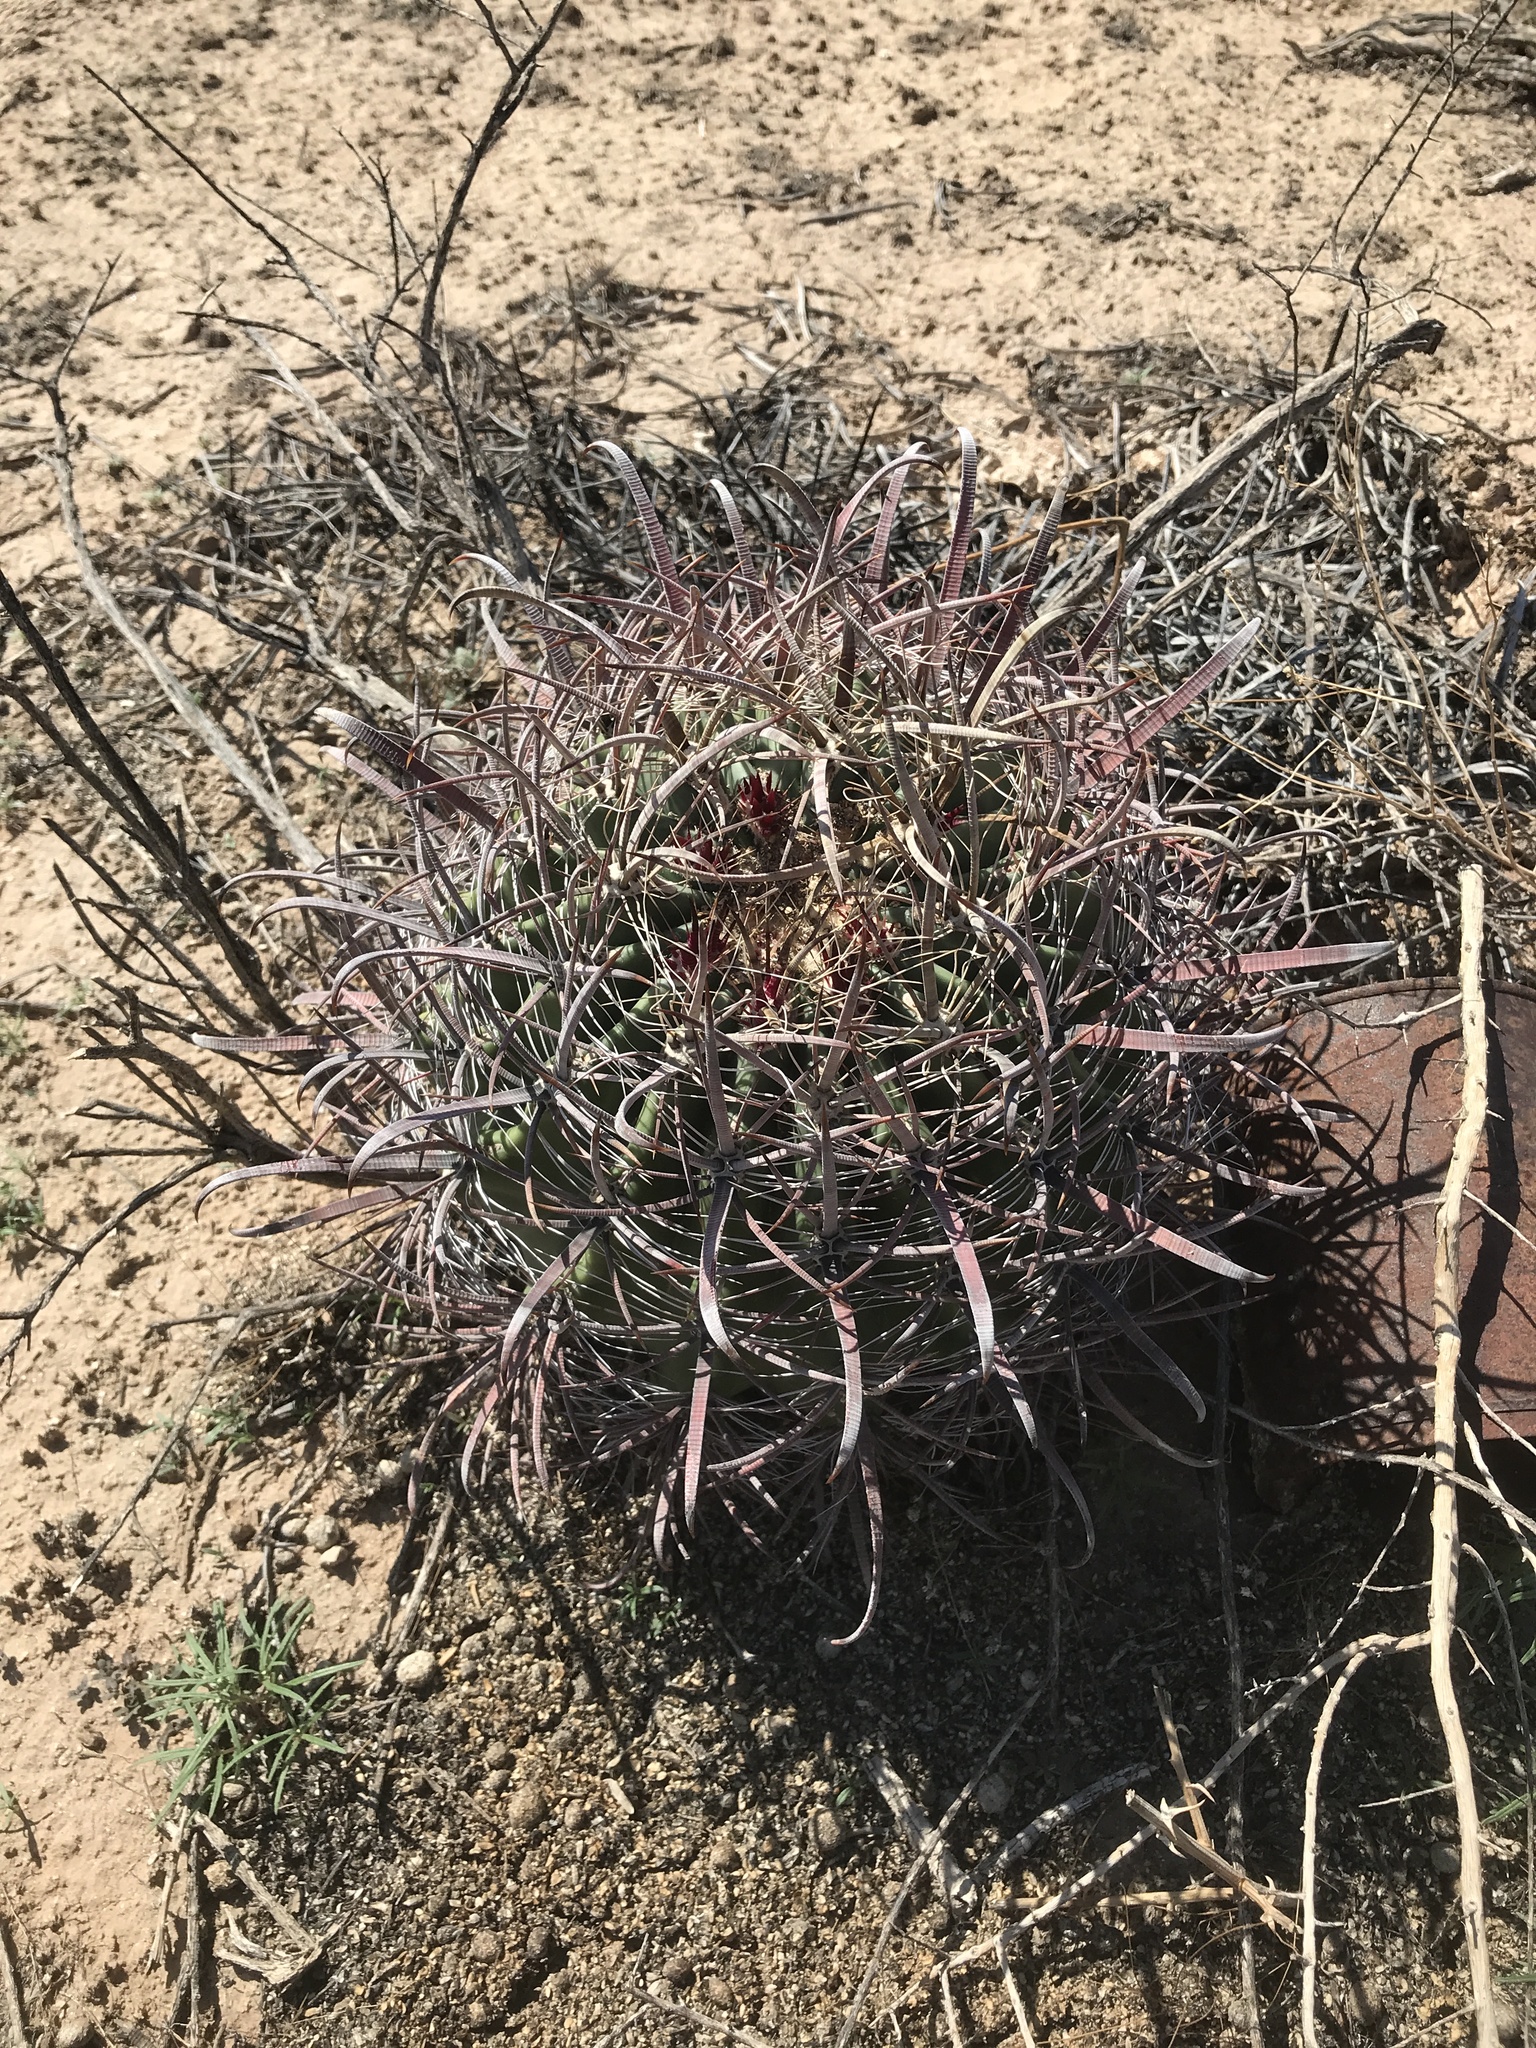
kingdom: Plantae
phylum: Tracheophyta
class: Magnoliopsida
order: Caryophyllales
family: Cactaceae
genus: Ferocactus
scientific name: Ferocactus cylindraceus
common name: California barrel cactus
